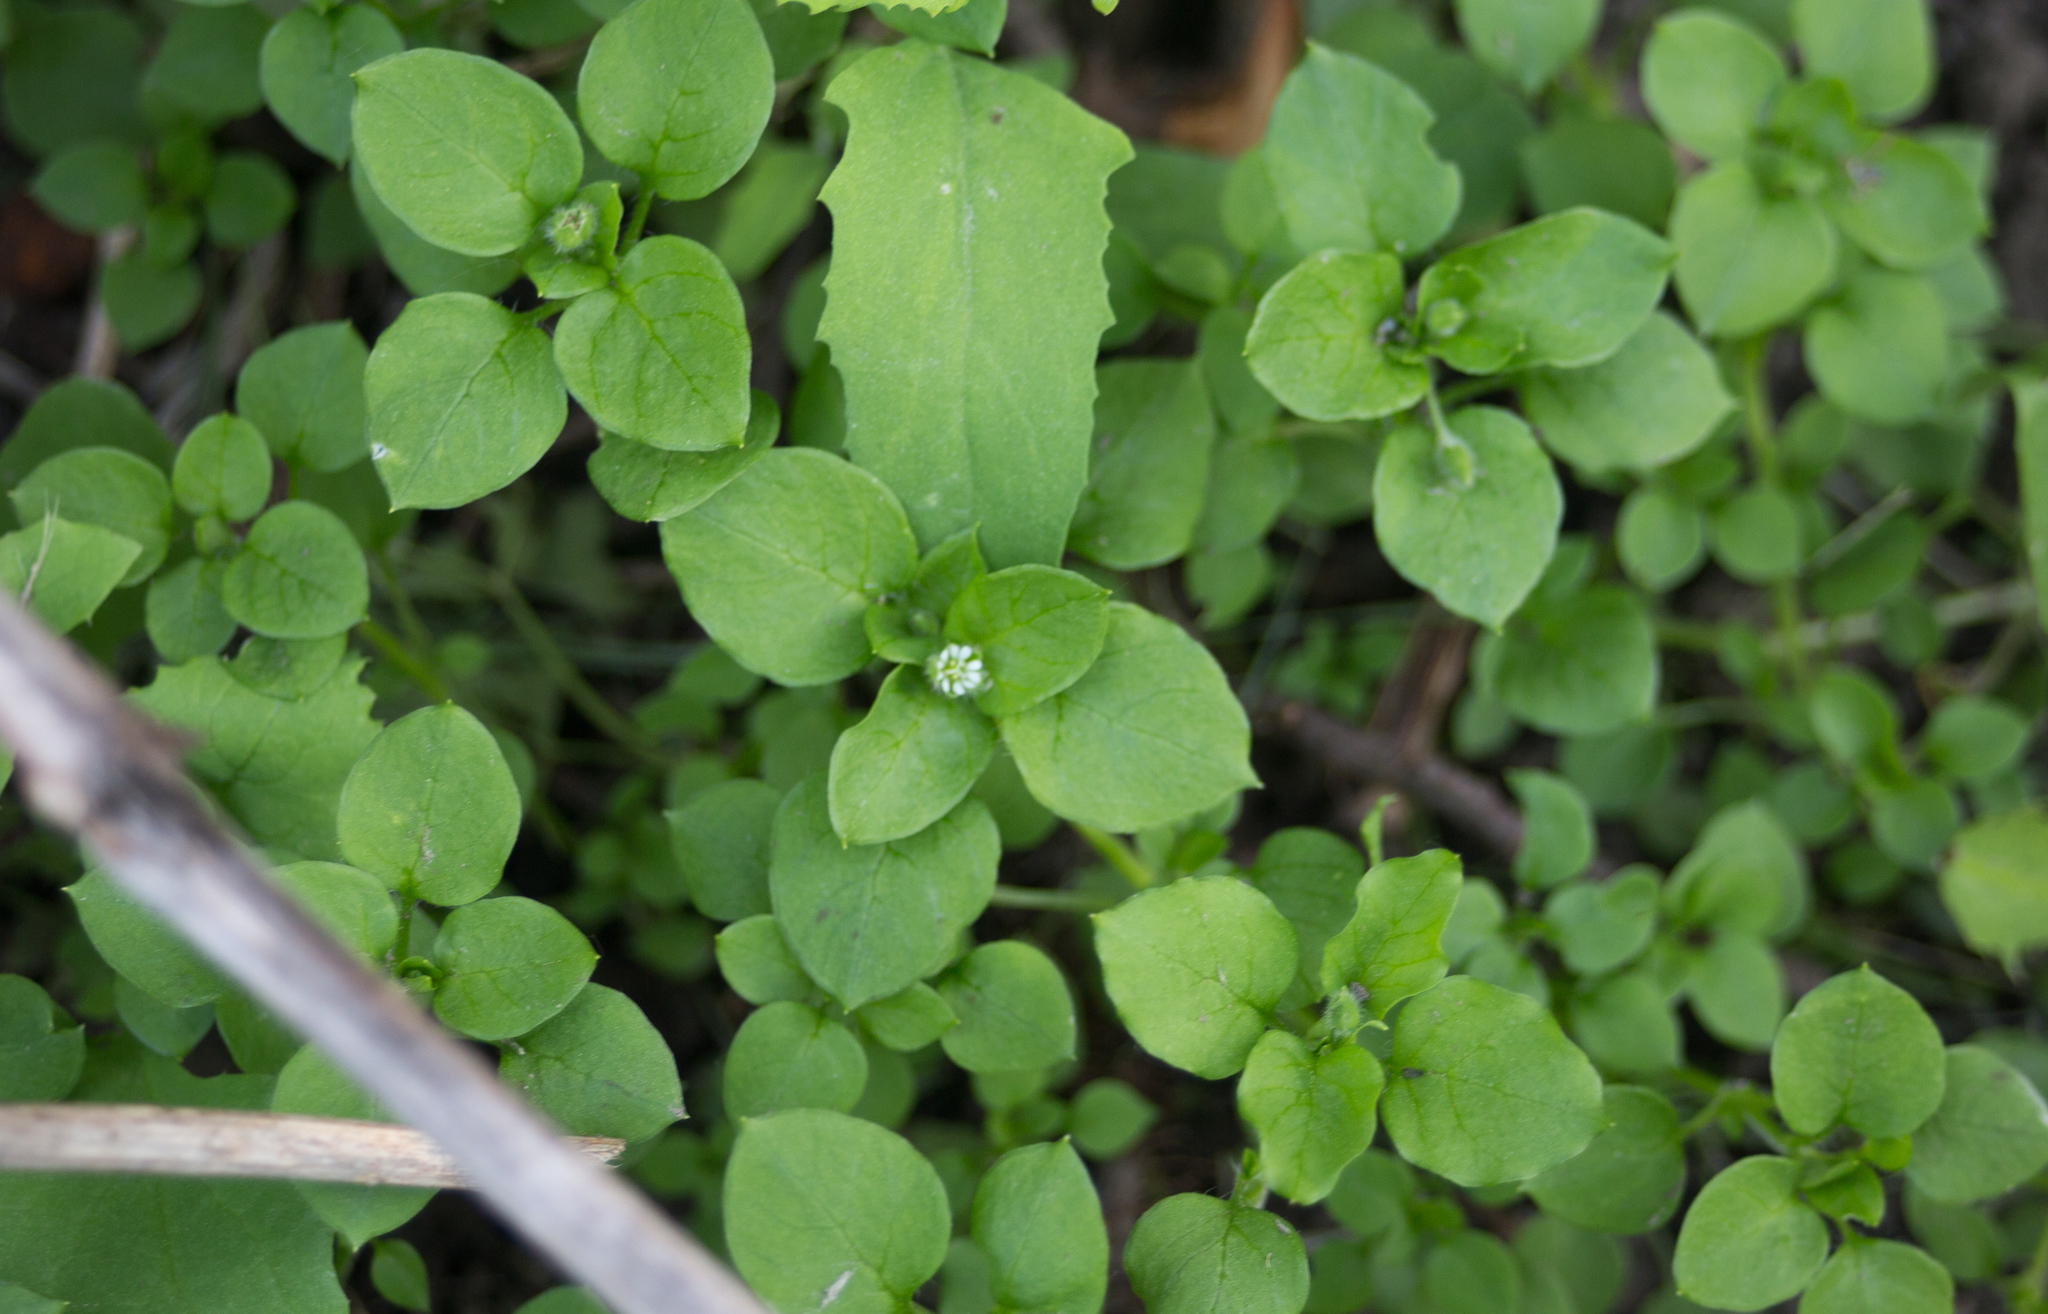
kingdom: Plantae
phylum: Tracheophyta
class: Magnoliopsida
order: Caryophyllales
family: Caryophyllaceae
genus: Stellaria
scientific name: Stellaria media
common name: Common chickweed
